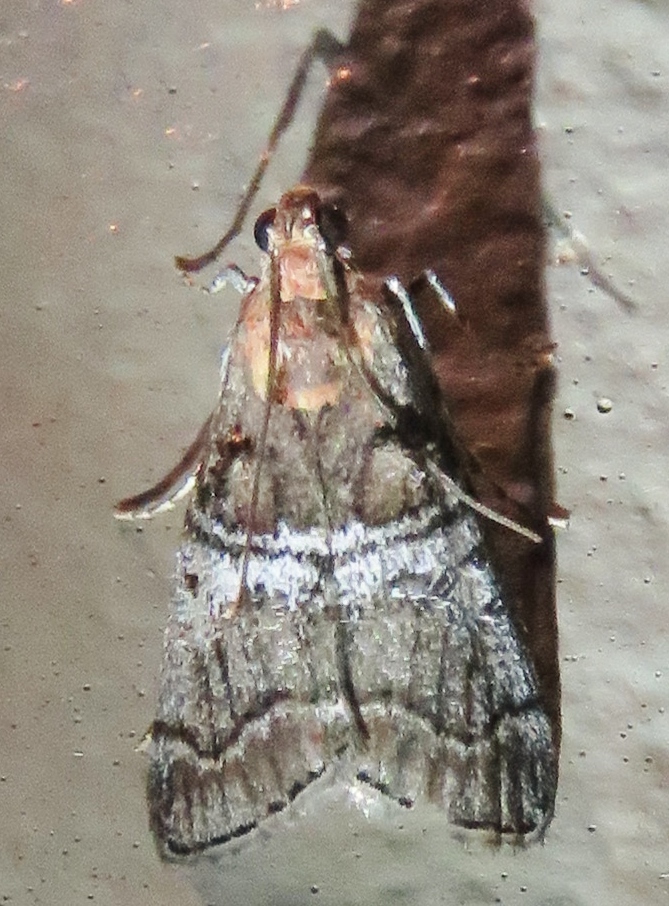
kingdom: Animalia
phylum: Arthropoda
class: Insecta
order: Lepidoptera
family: Pyralidae
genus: Pococera
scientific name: Pococera maritimalis
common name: Gray-banded pococera moth
